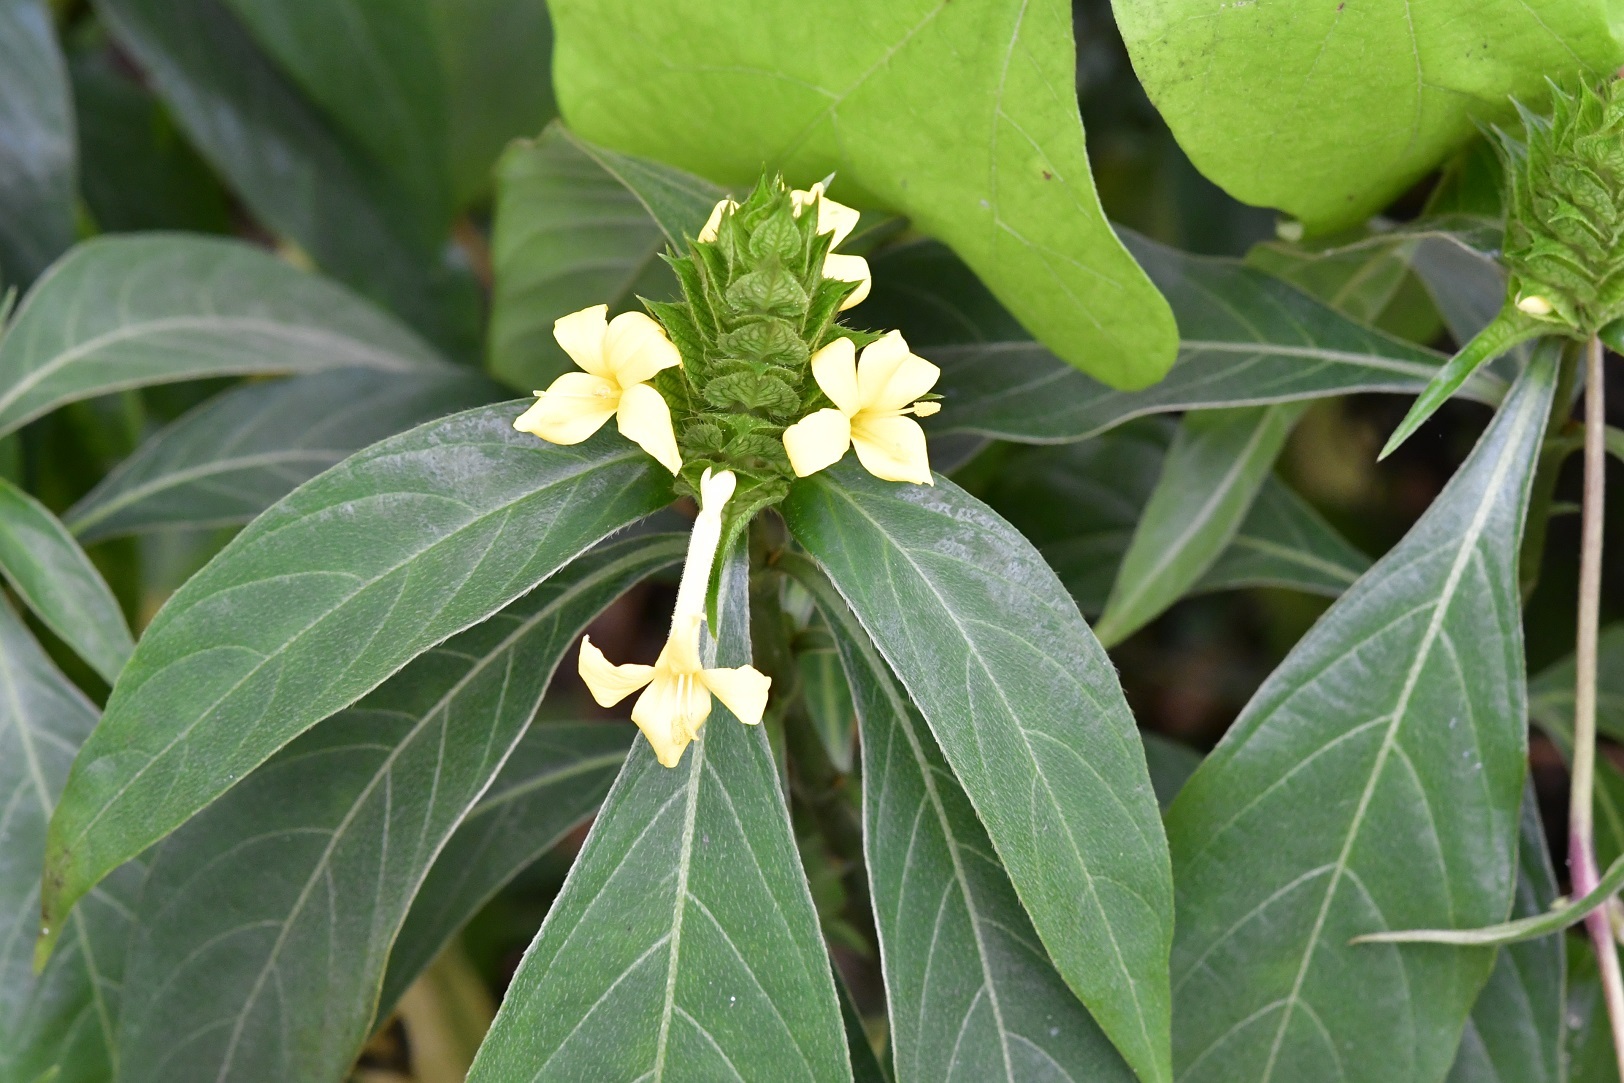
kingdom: Plantae
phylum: Tracheophyta
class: Magnoliopsida
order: Lamiales
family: Acanthaceae
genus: Barleria
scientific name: Barleria oenotheroides
